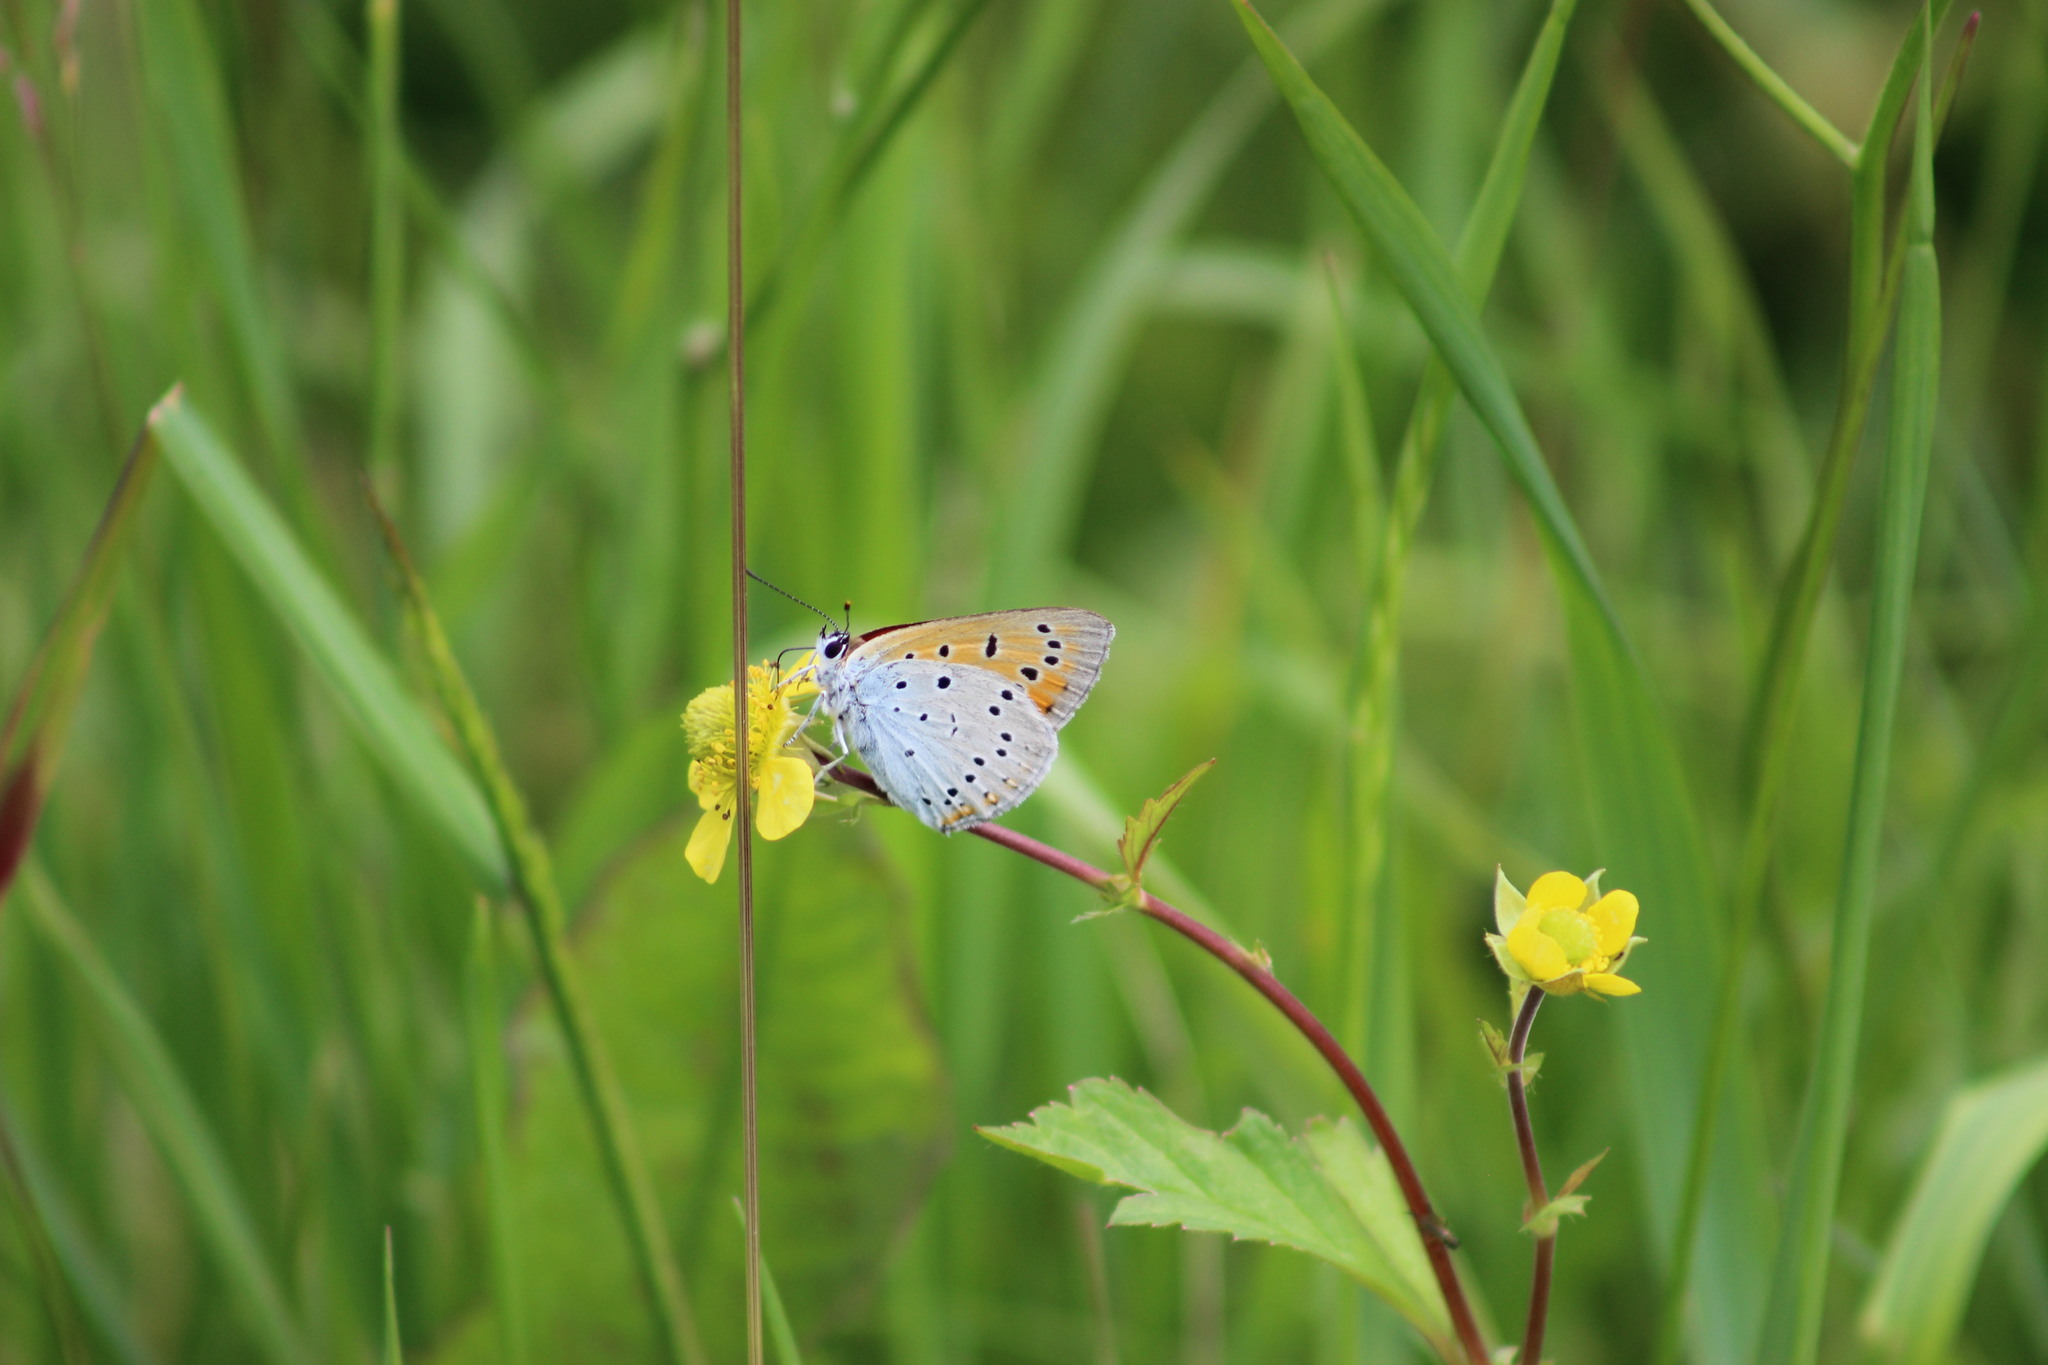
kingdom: Animalia
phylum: Arthropoda
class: Insecta
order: Lepidoptera
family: Lycaenidae
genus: Lycaena
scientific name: Lycaena dispar
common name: Large copper
